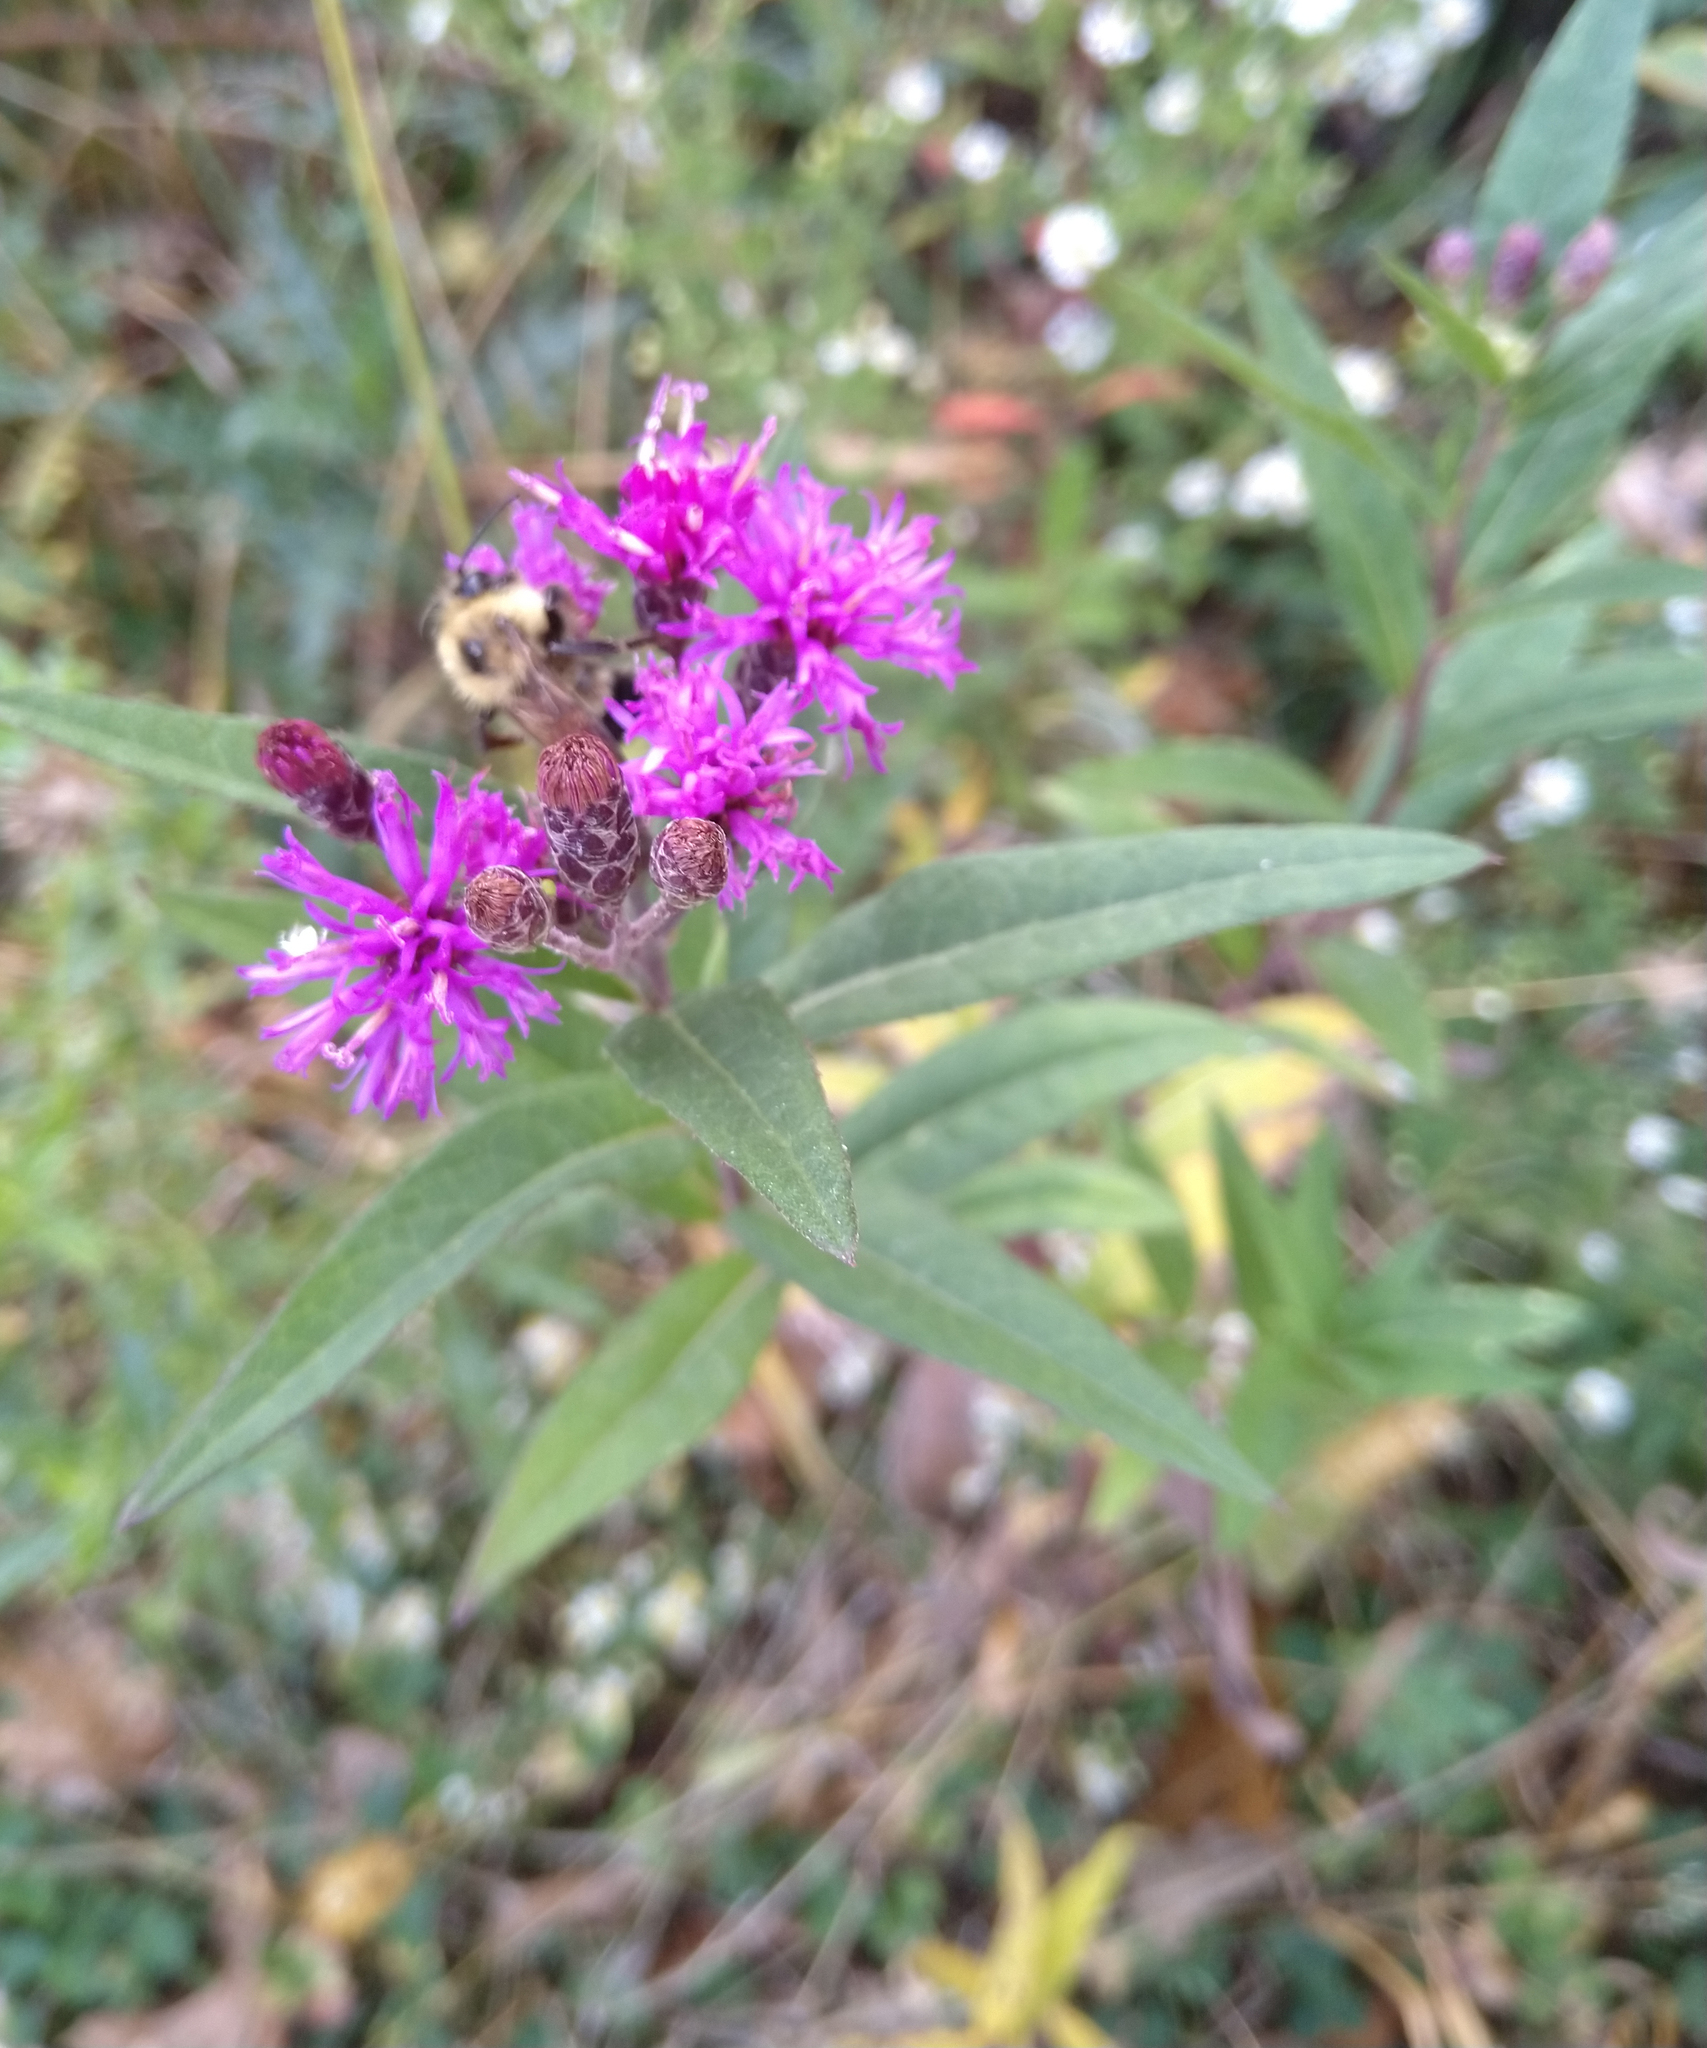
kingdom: Plantae
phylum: Tracheophyta
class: Magnoliopsida
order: Asterales
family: Asteraceae
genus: Vernonia
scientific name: Vernonia fasciculata
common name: Fascicled ironweed
